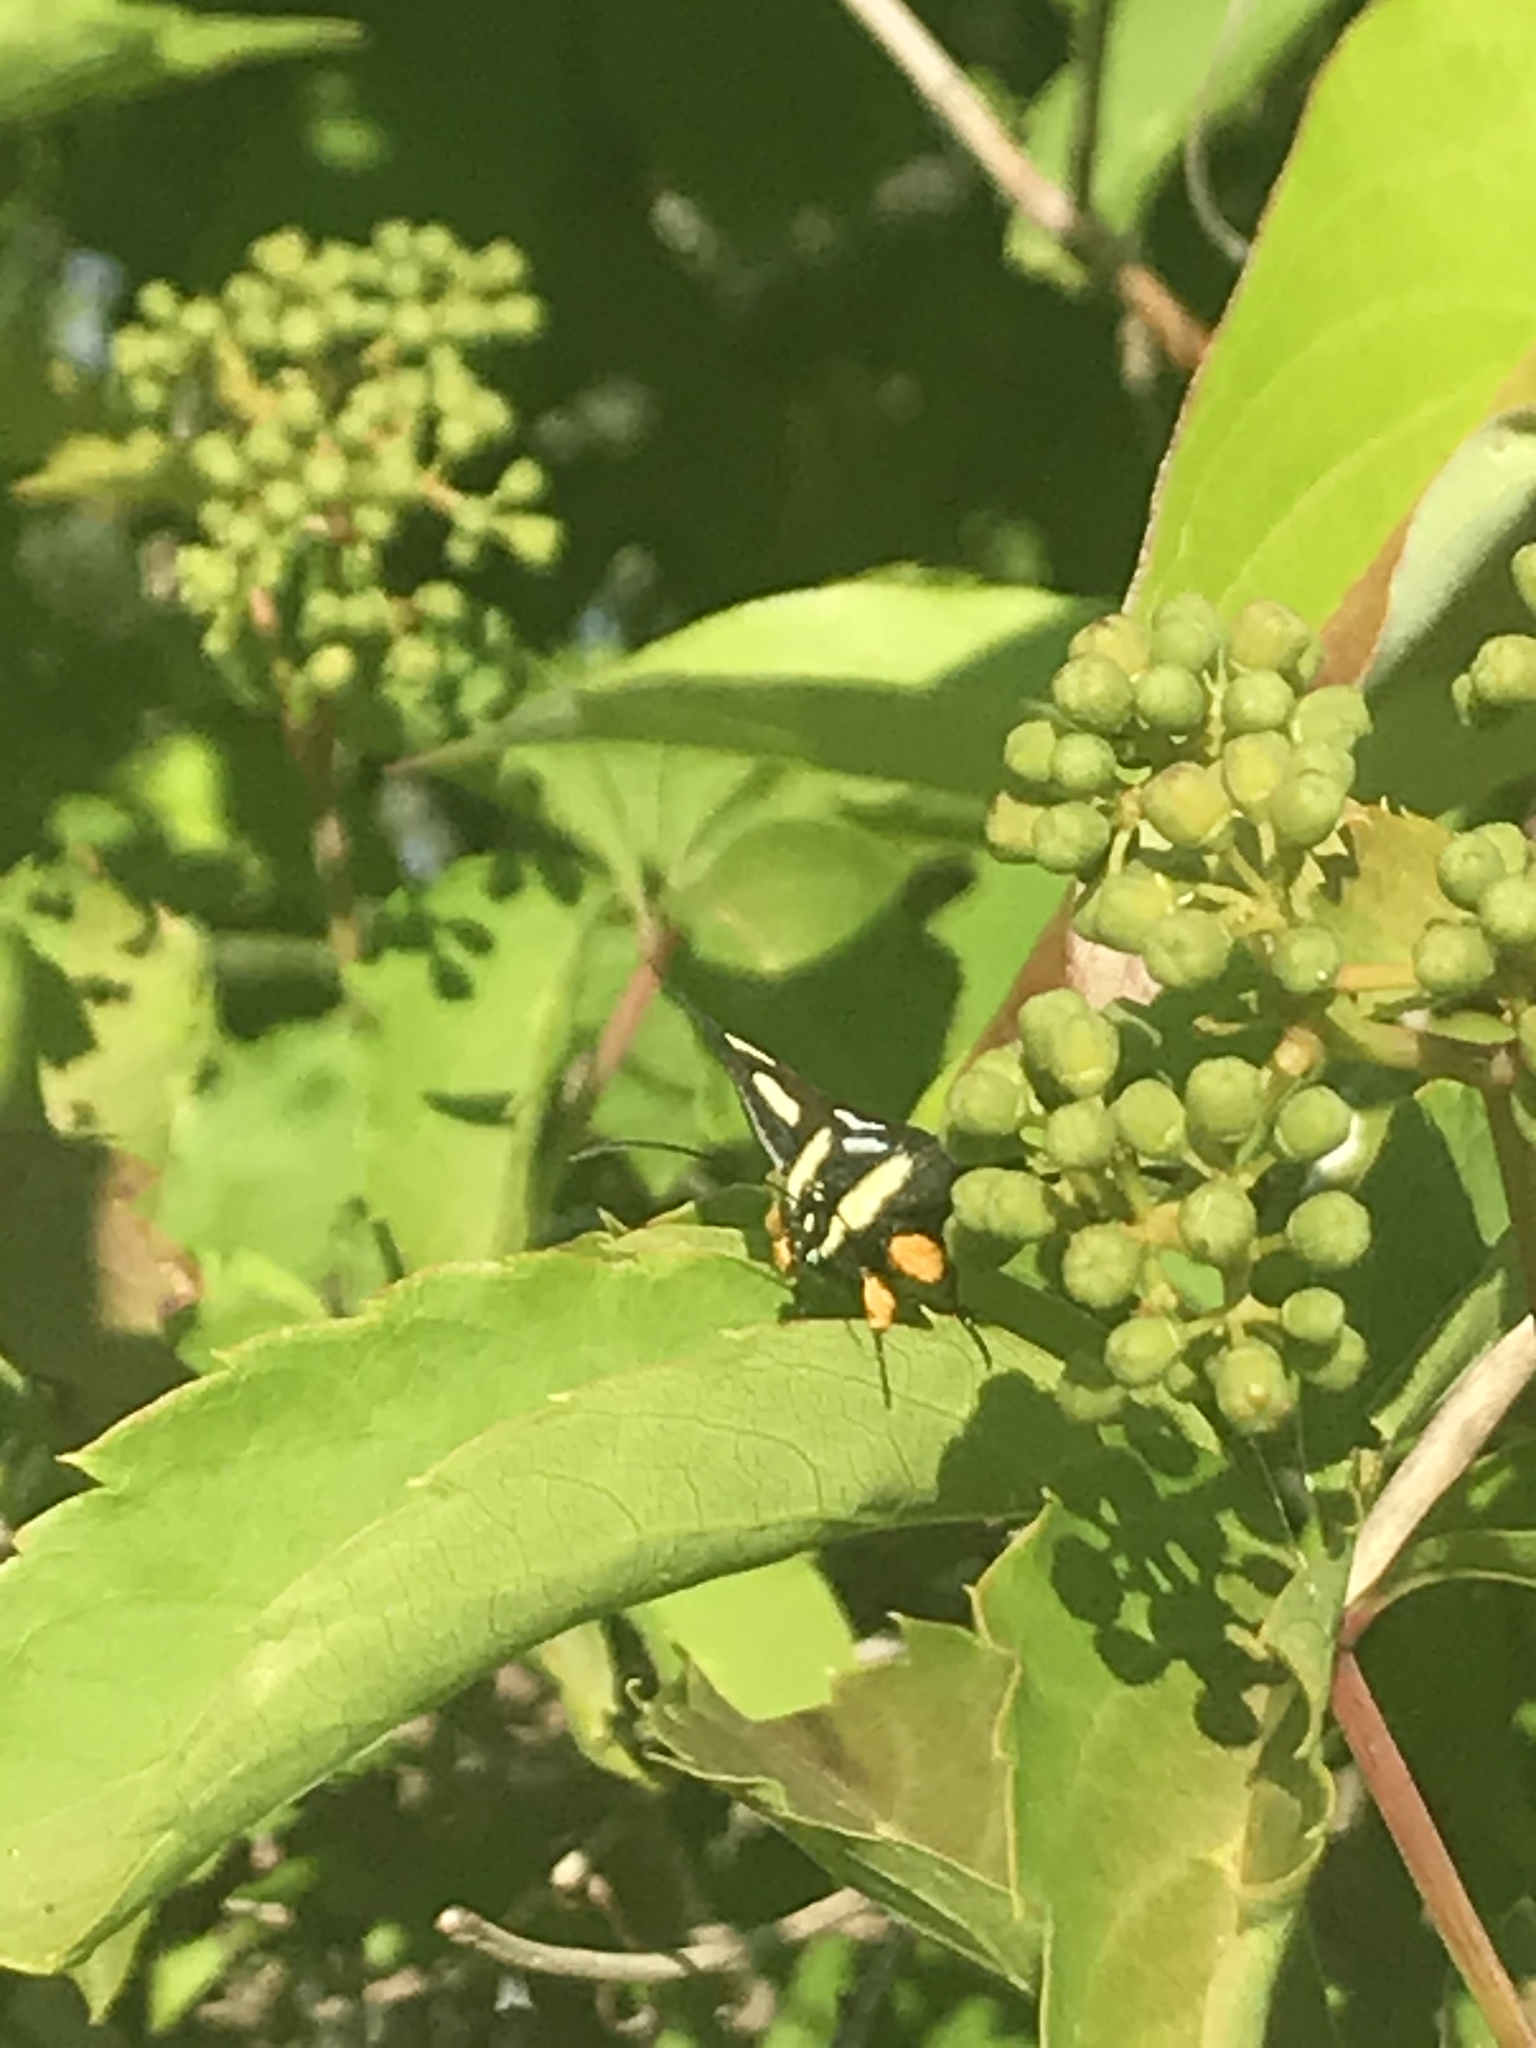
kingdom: Animalia
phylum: Arthropoda
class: Insecta
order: Lepidoptera
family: Noctuidae
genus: Alypia
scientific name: Alypia octomaculata
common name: Eight-spotted forester
